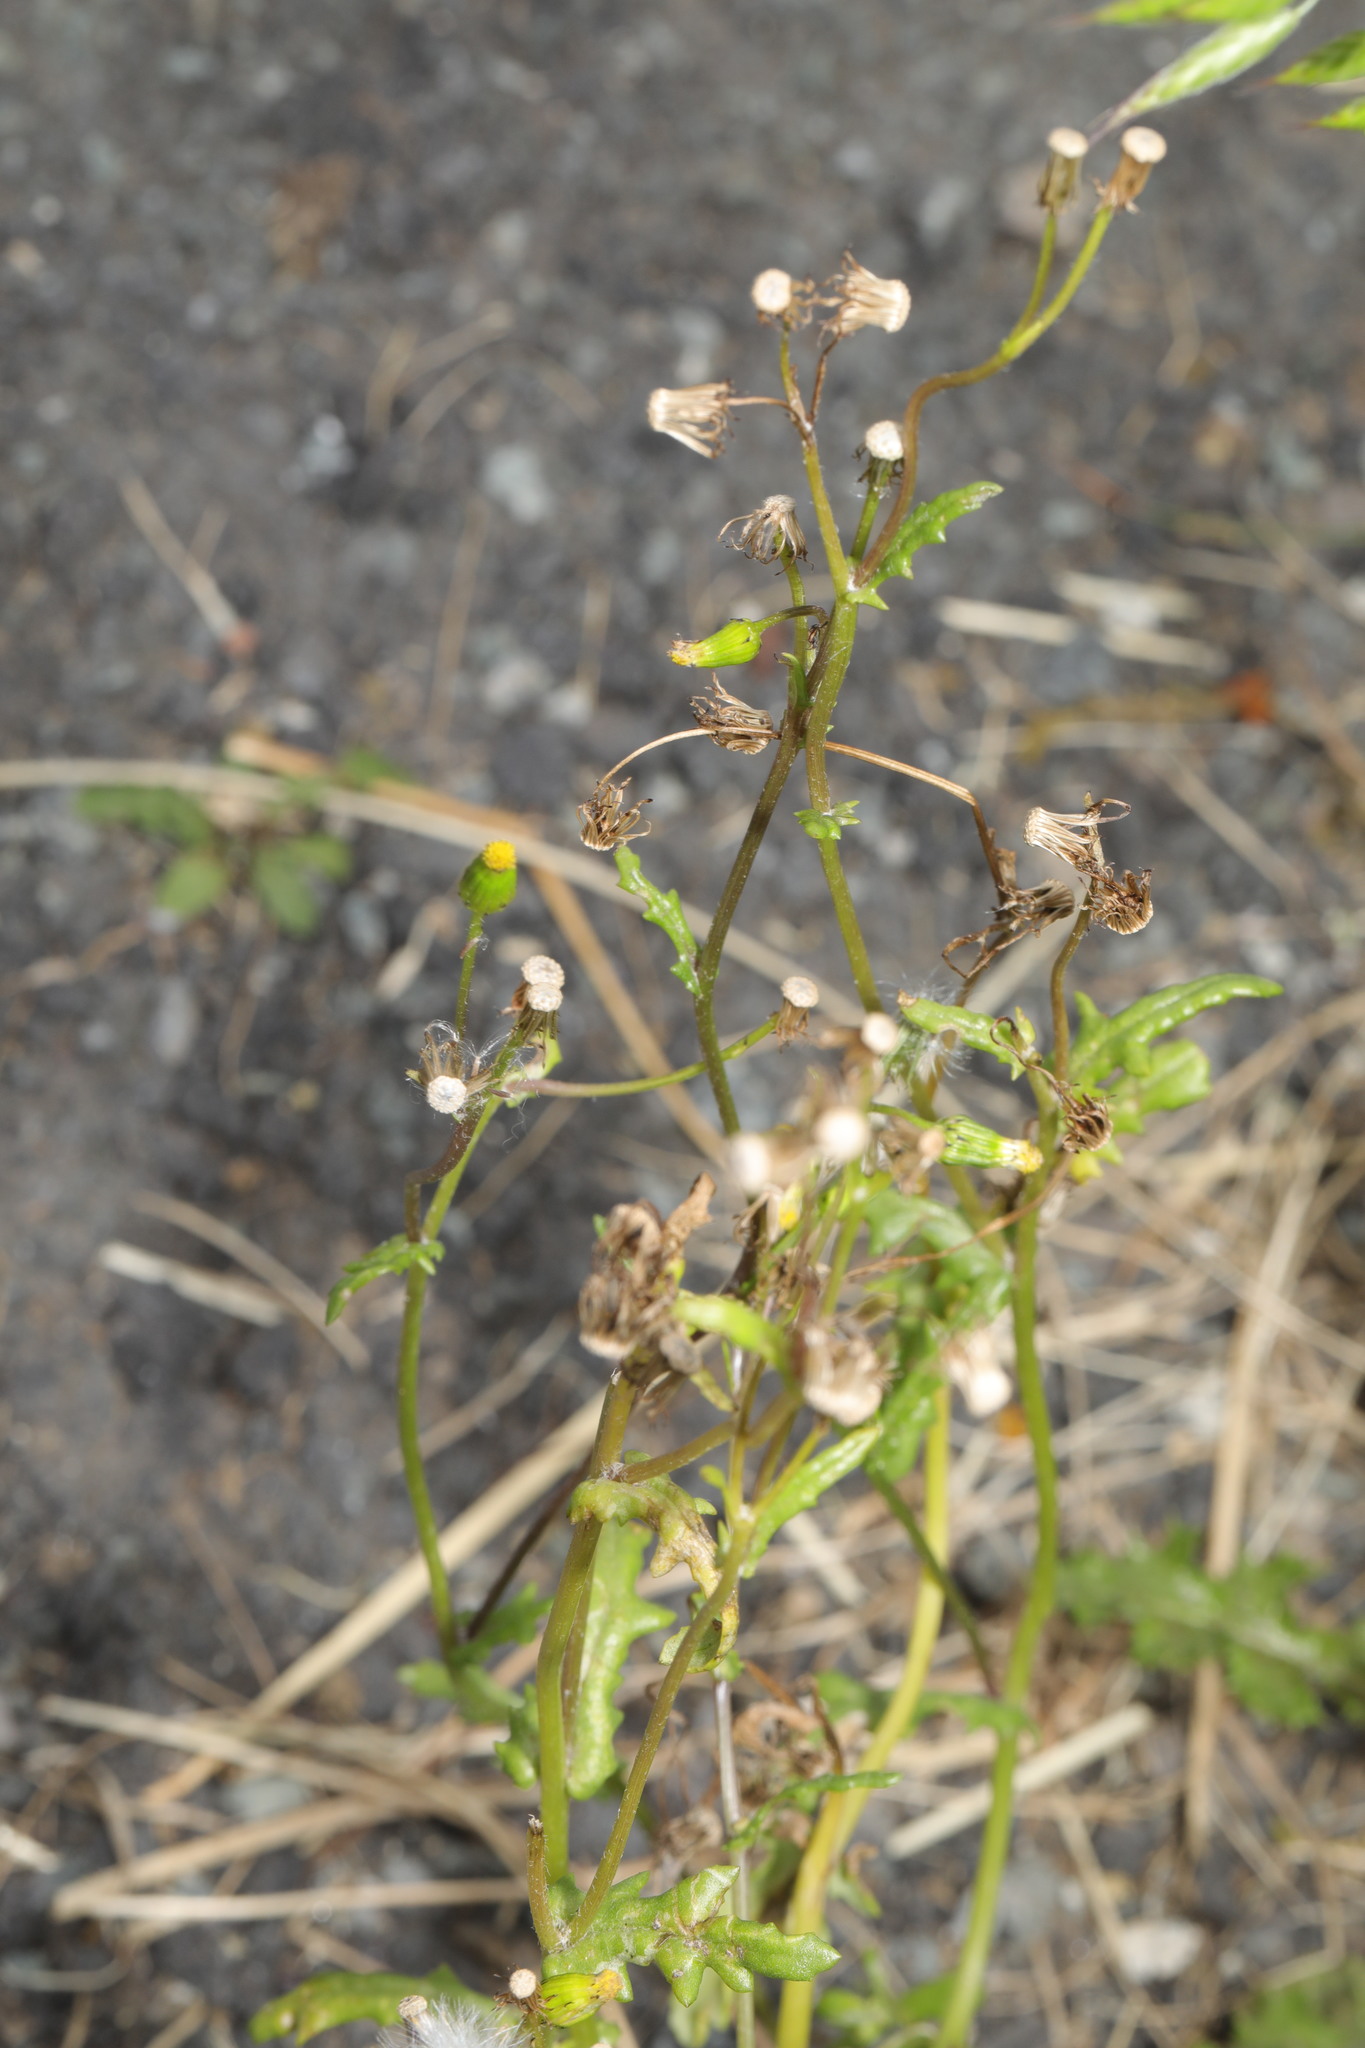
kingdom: Plantae
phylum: Tracheophyta
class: Magnoliopsida
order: Asterales
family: Asteraceae
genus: Senecio
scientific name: Senecio vulgaris
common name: Old-man-in-the-spring
